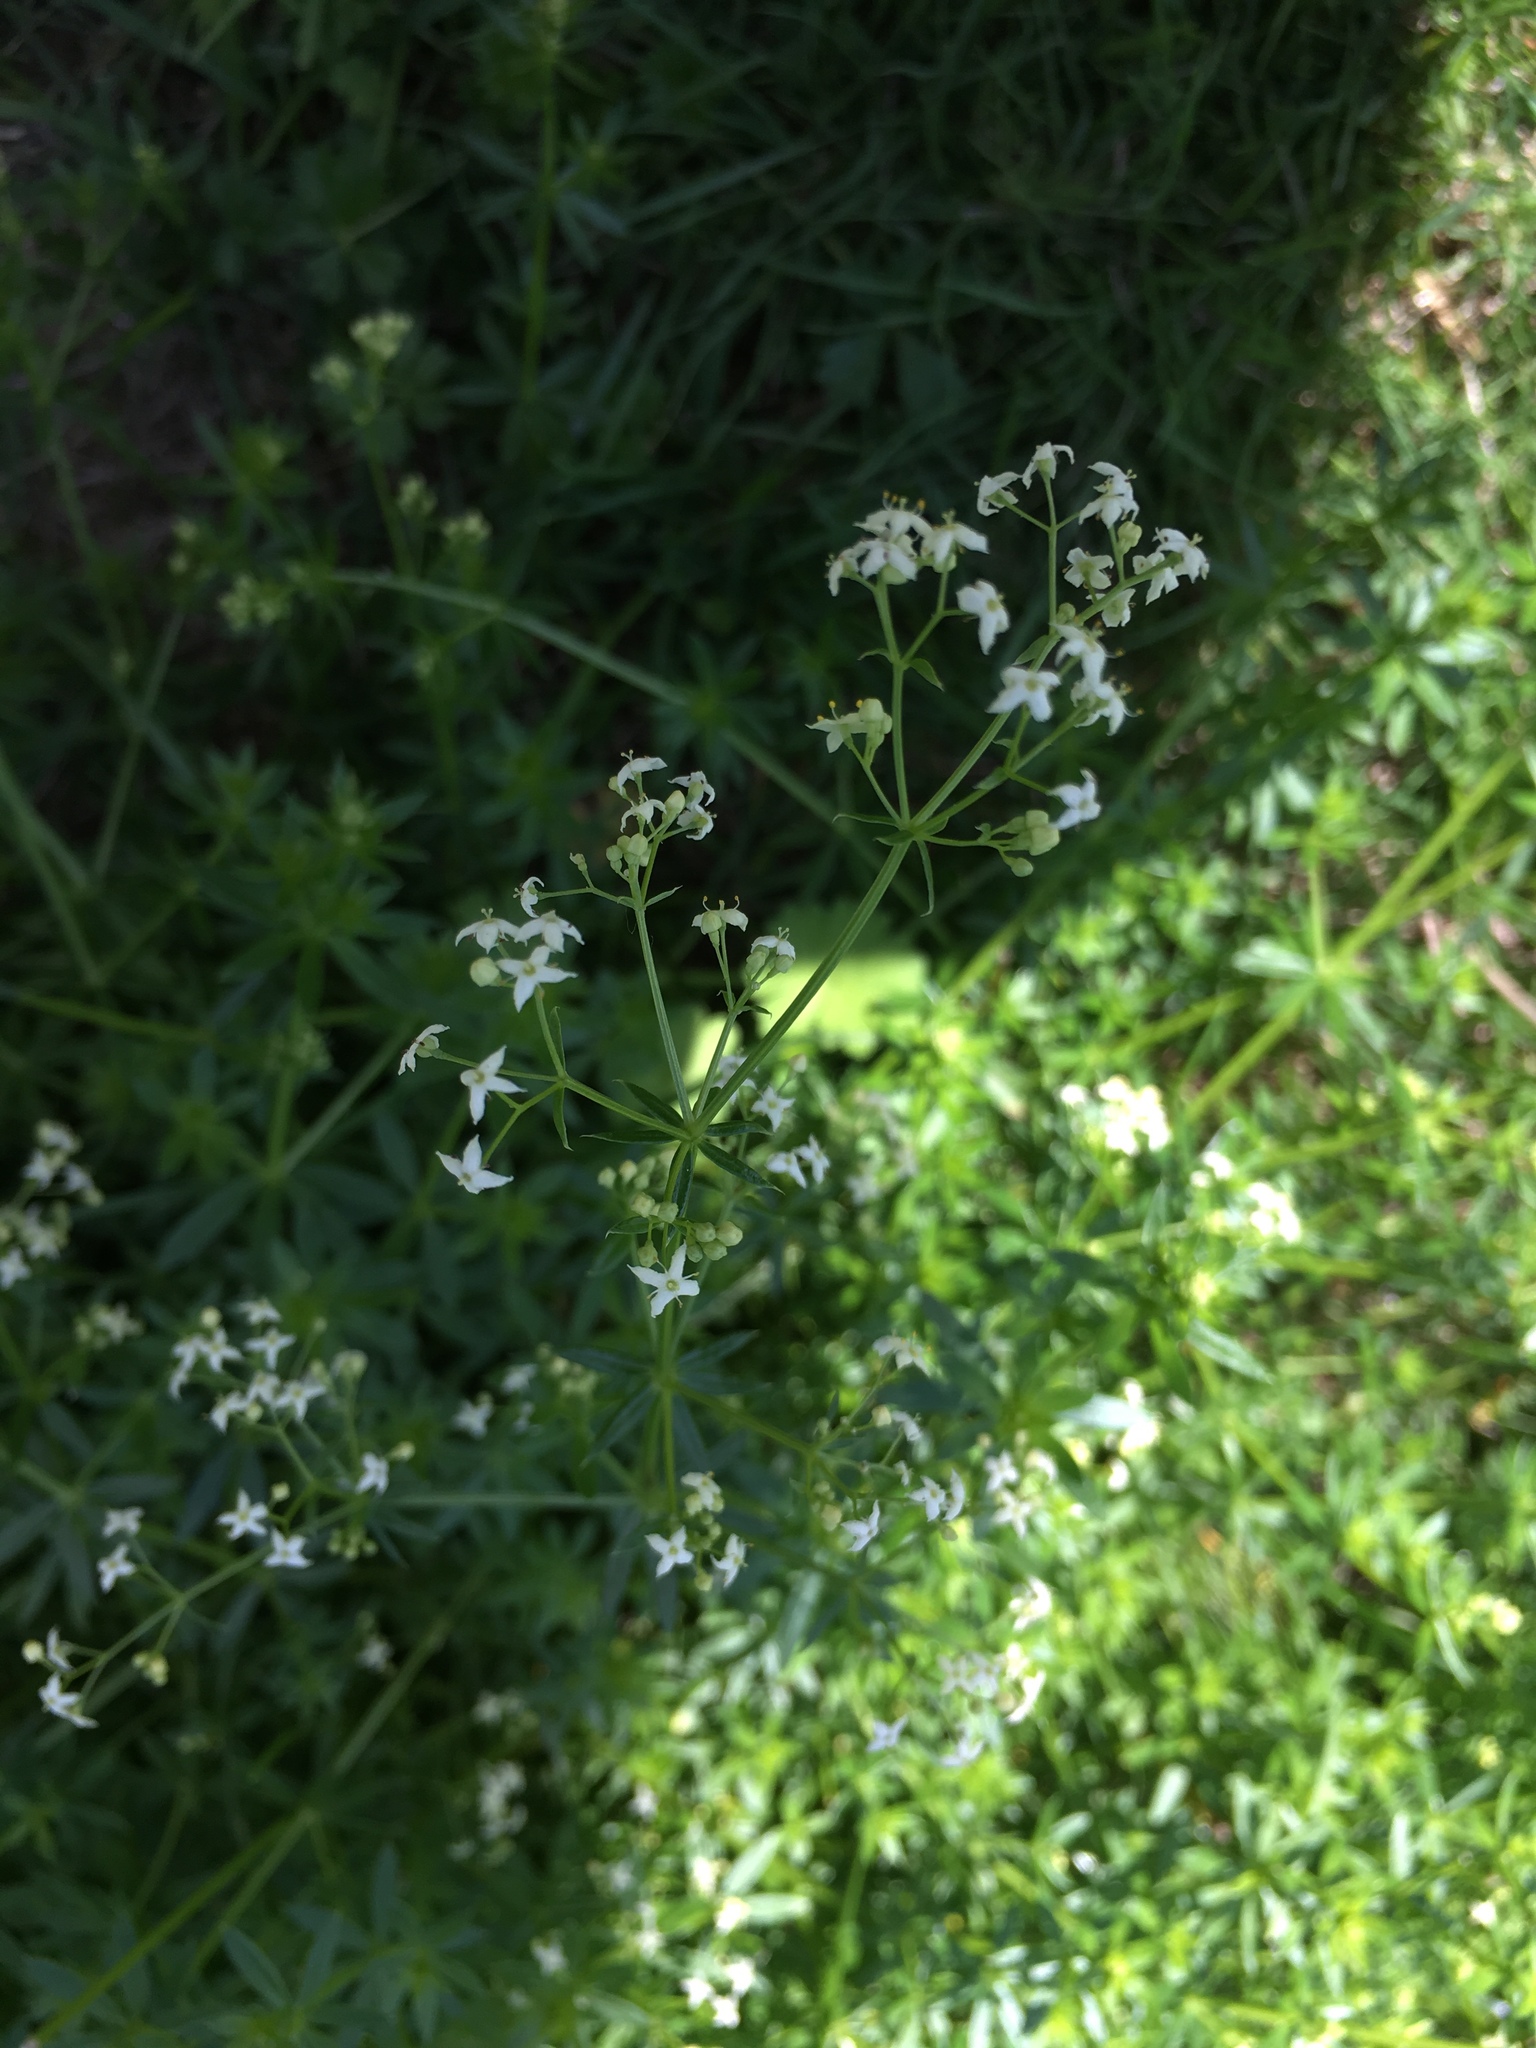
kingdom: Plantae
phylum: Tracheophyta
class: Magnoliopsida
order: Gentianales
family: Rubiaceae
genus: Galium
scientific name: Galium album
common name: White bedstraw
